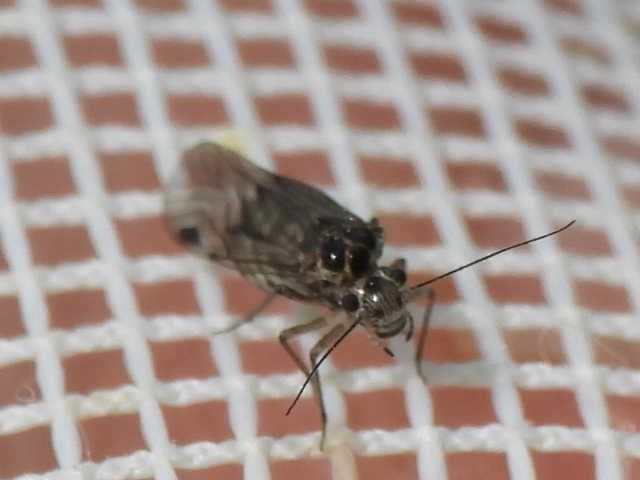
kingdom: Animalia
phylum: Arthropoda
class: Insecta
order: Psocodea
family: Psocidae
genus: Blaste
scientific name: Blaste quieta
